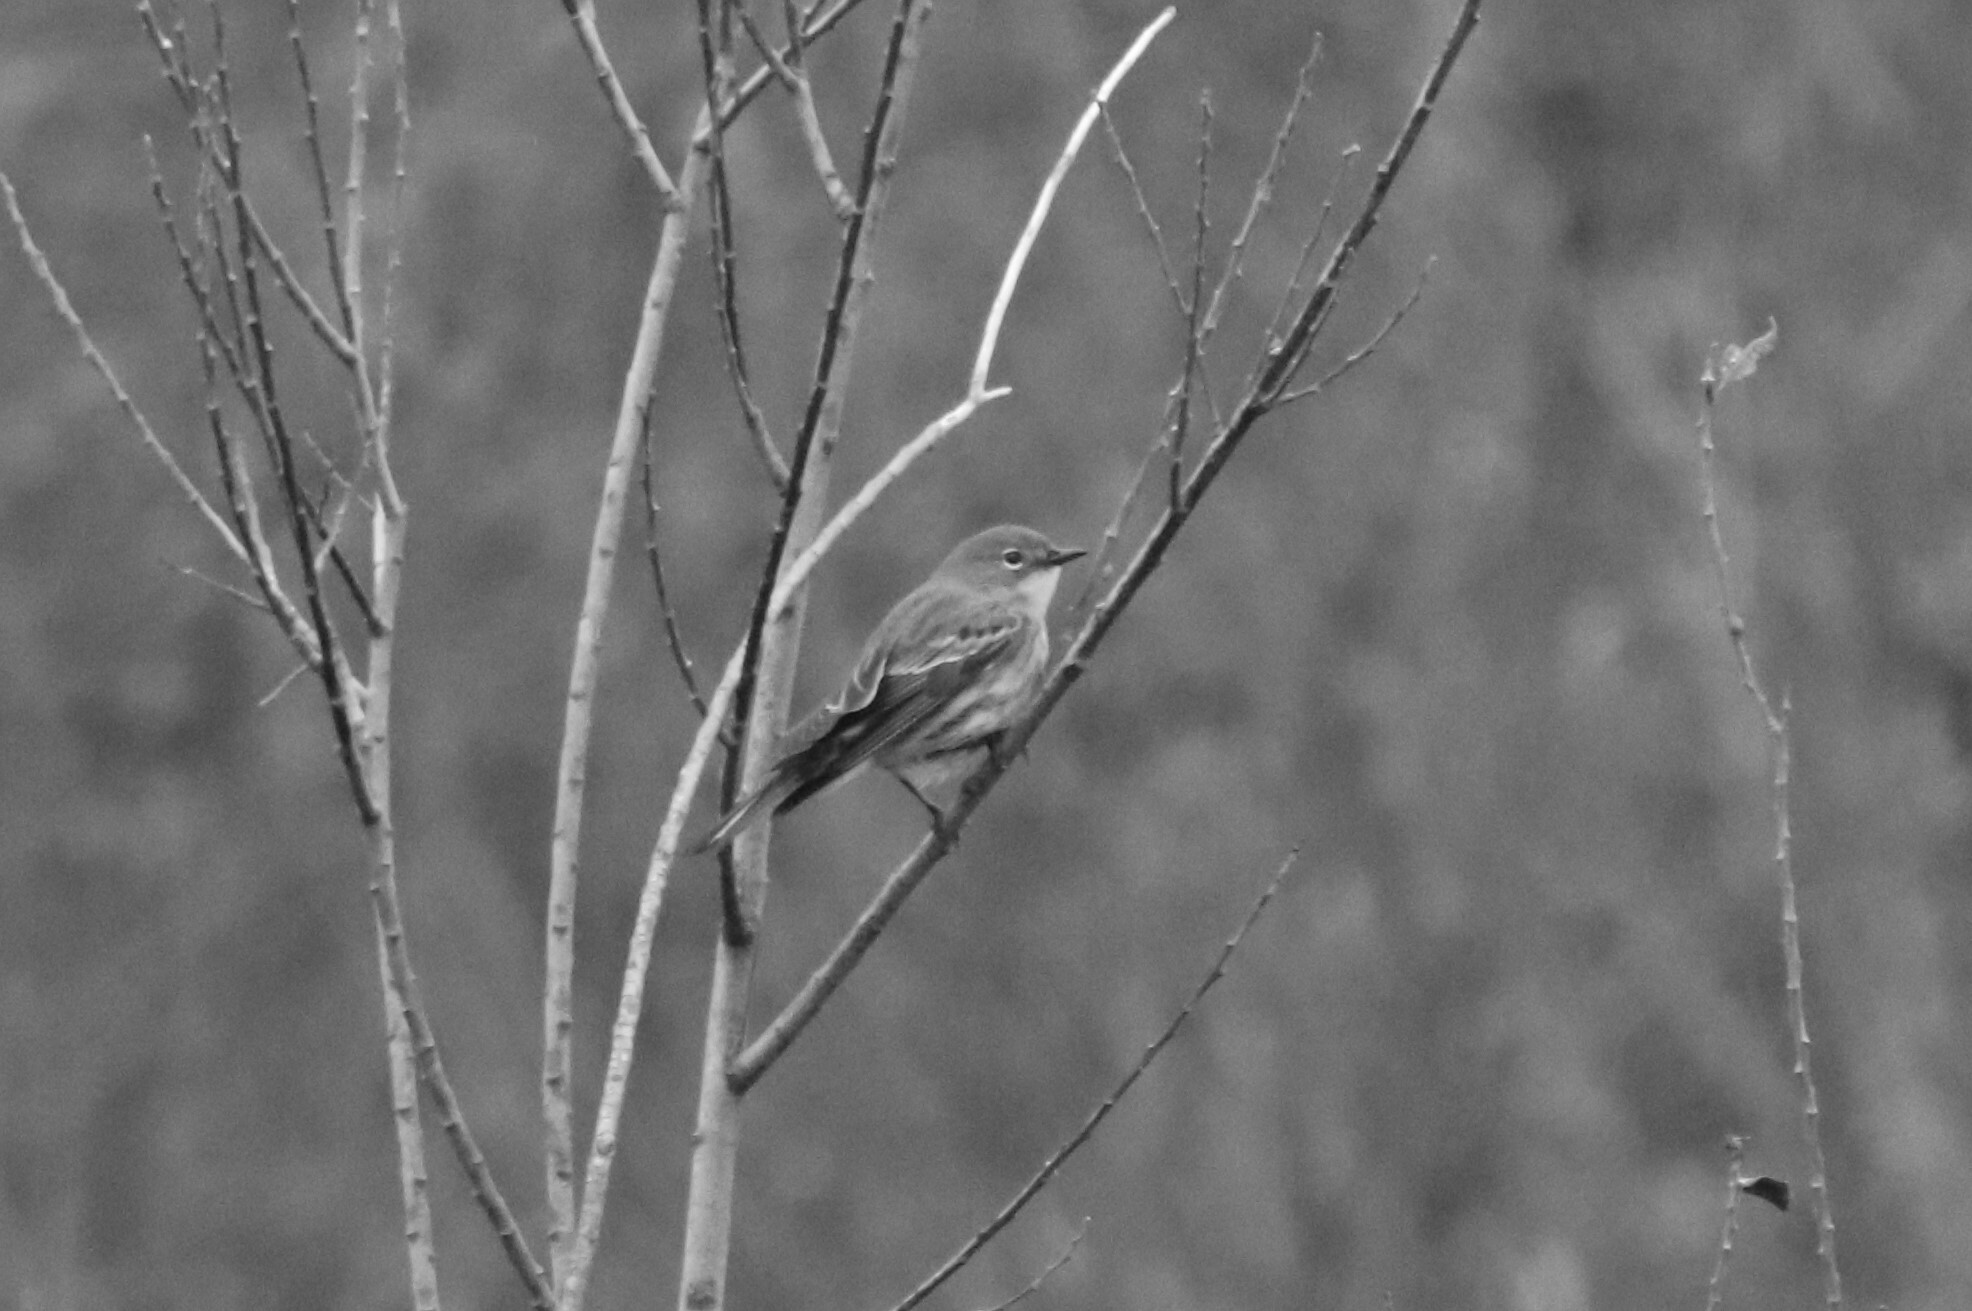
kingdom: Animalia
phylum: Chordata
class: Aves
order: Passeriformes
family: Parulidae
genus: Setophaga
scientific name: Setophaga coronata
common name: Myrtle warbler
